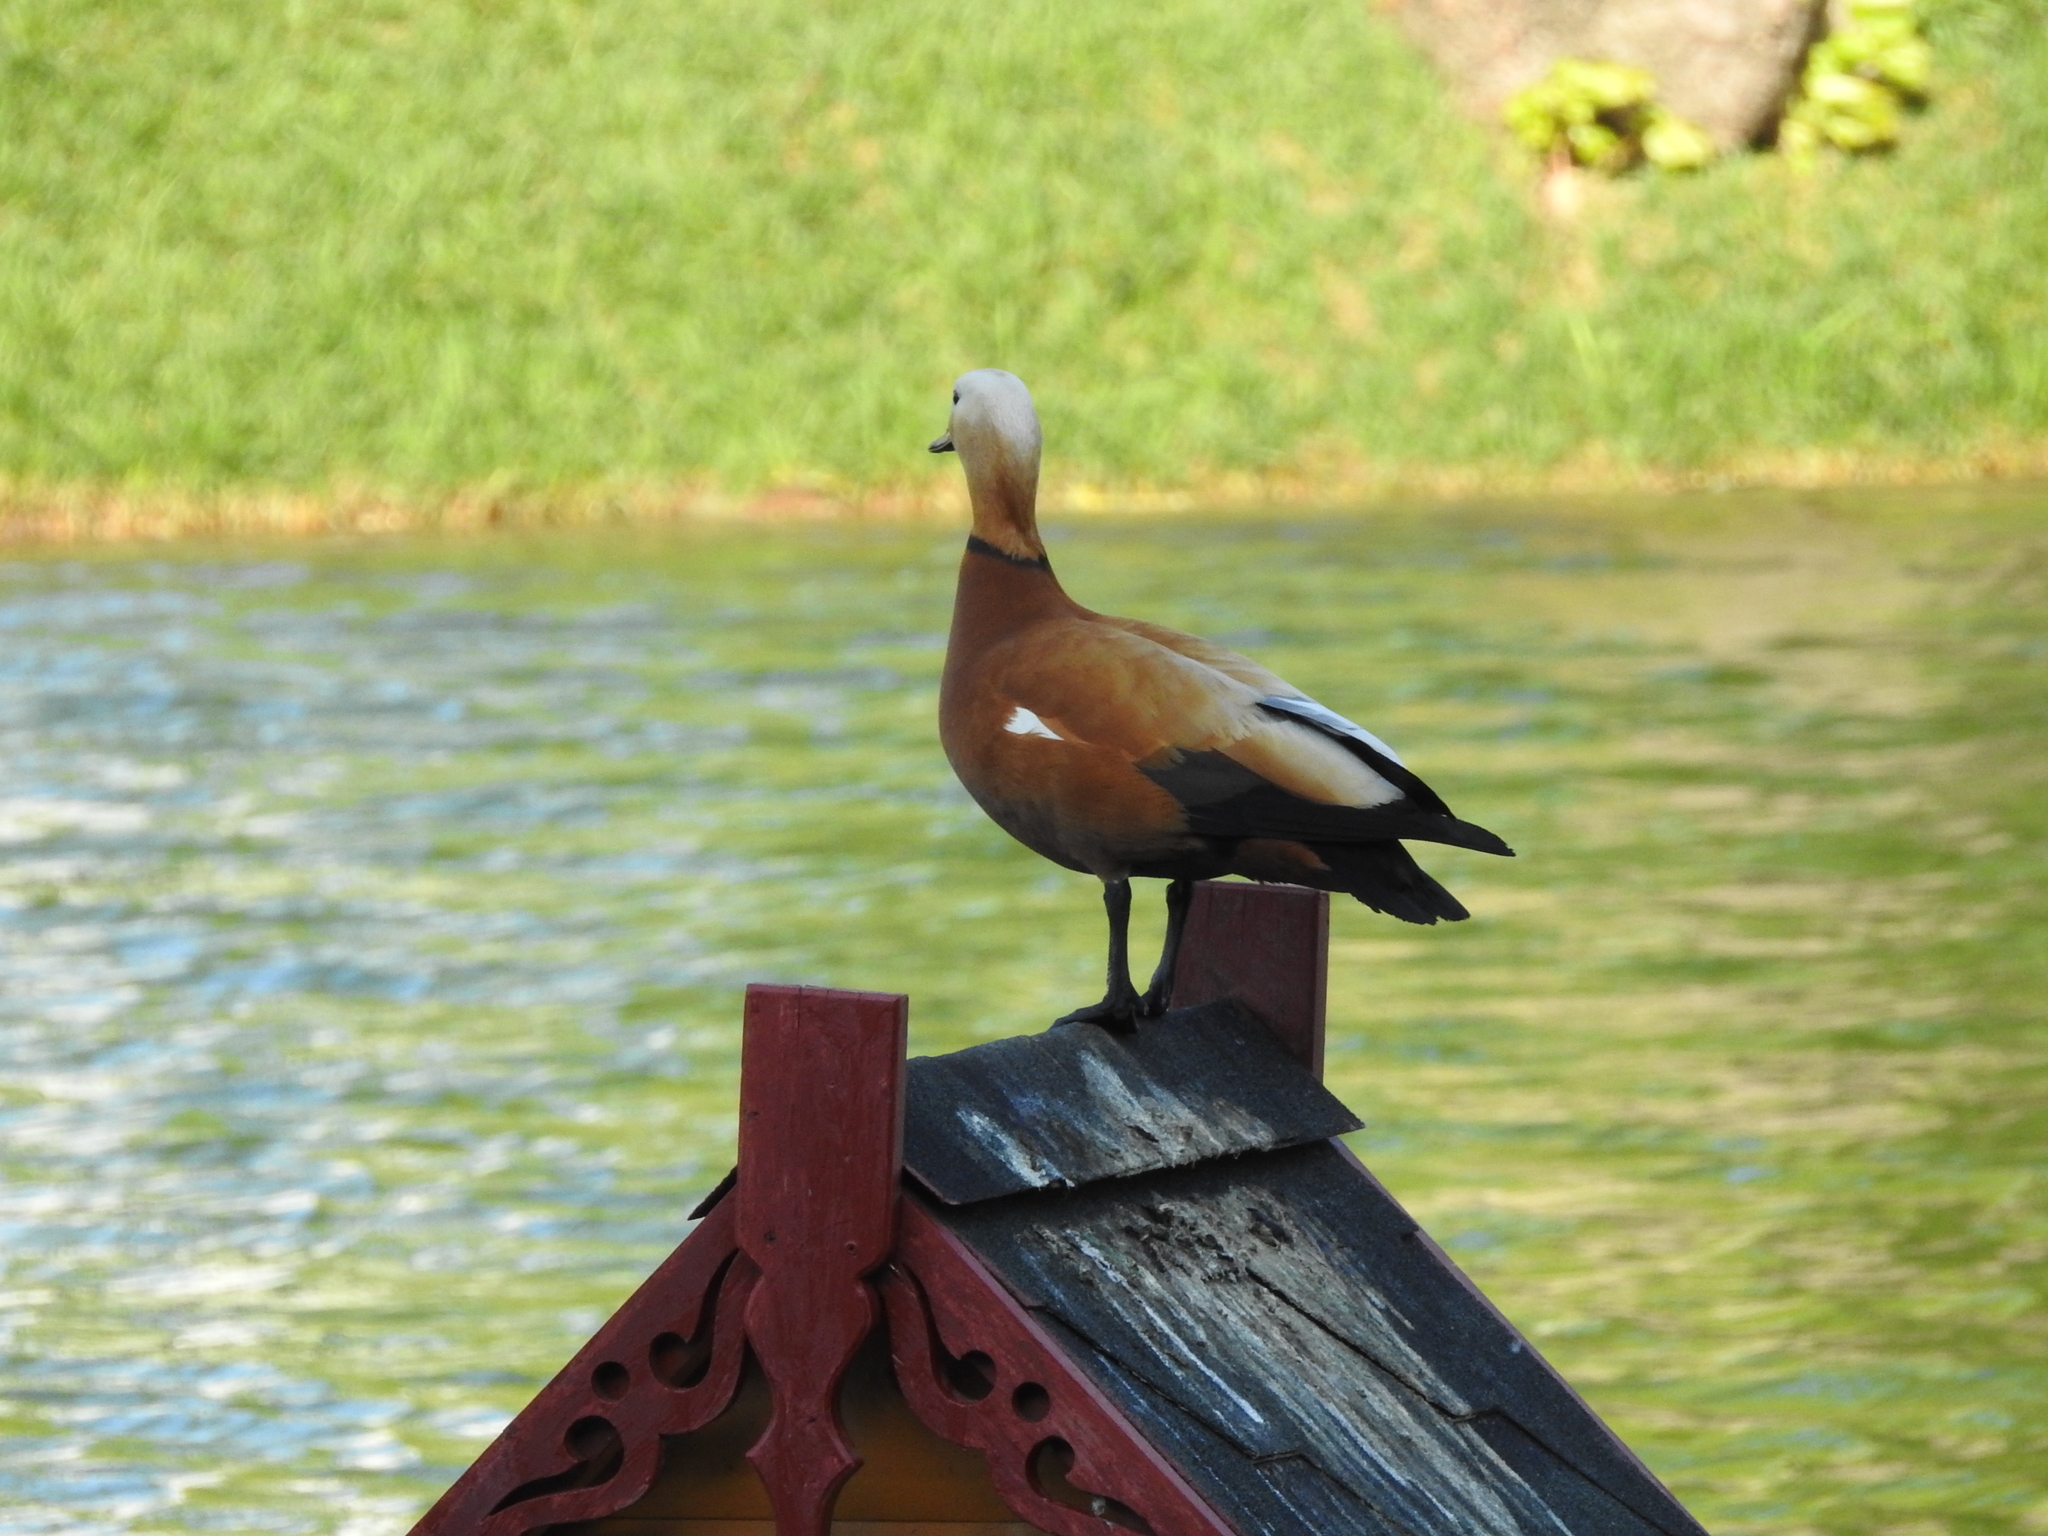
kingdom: Animalia
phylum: Chordata
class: Aves
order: Anseriformes
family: Anatidae
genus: Tadorna
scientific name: Tadorna ferruginea
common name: Ruddy shelduck
